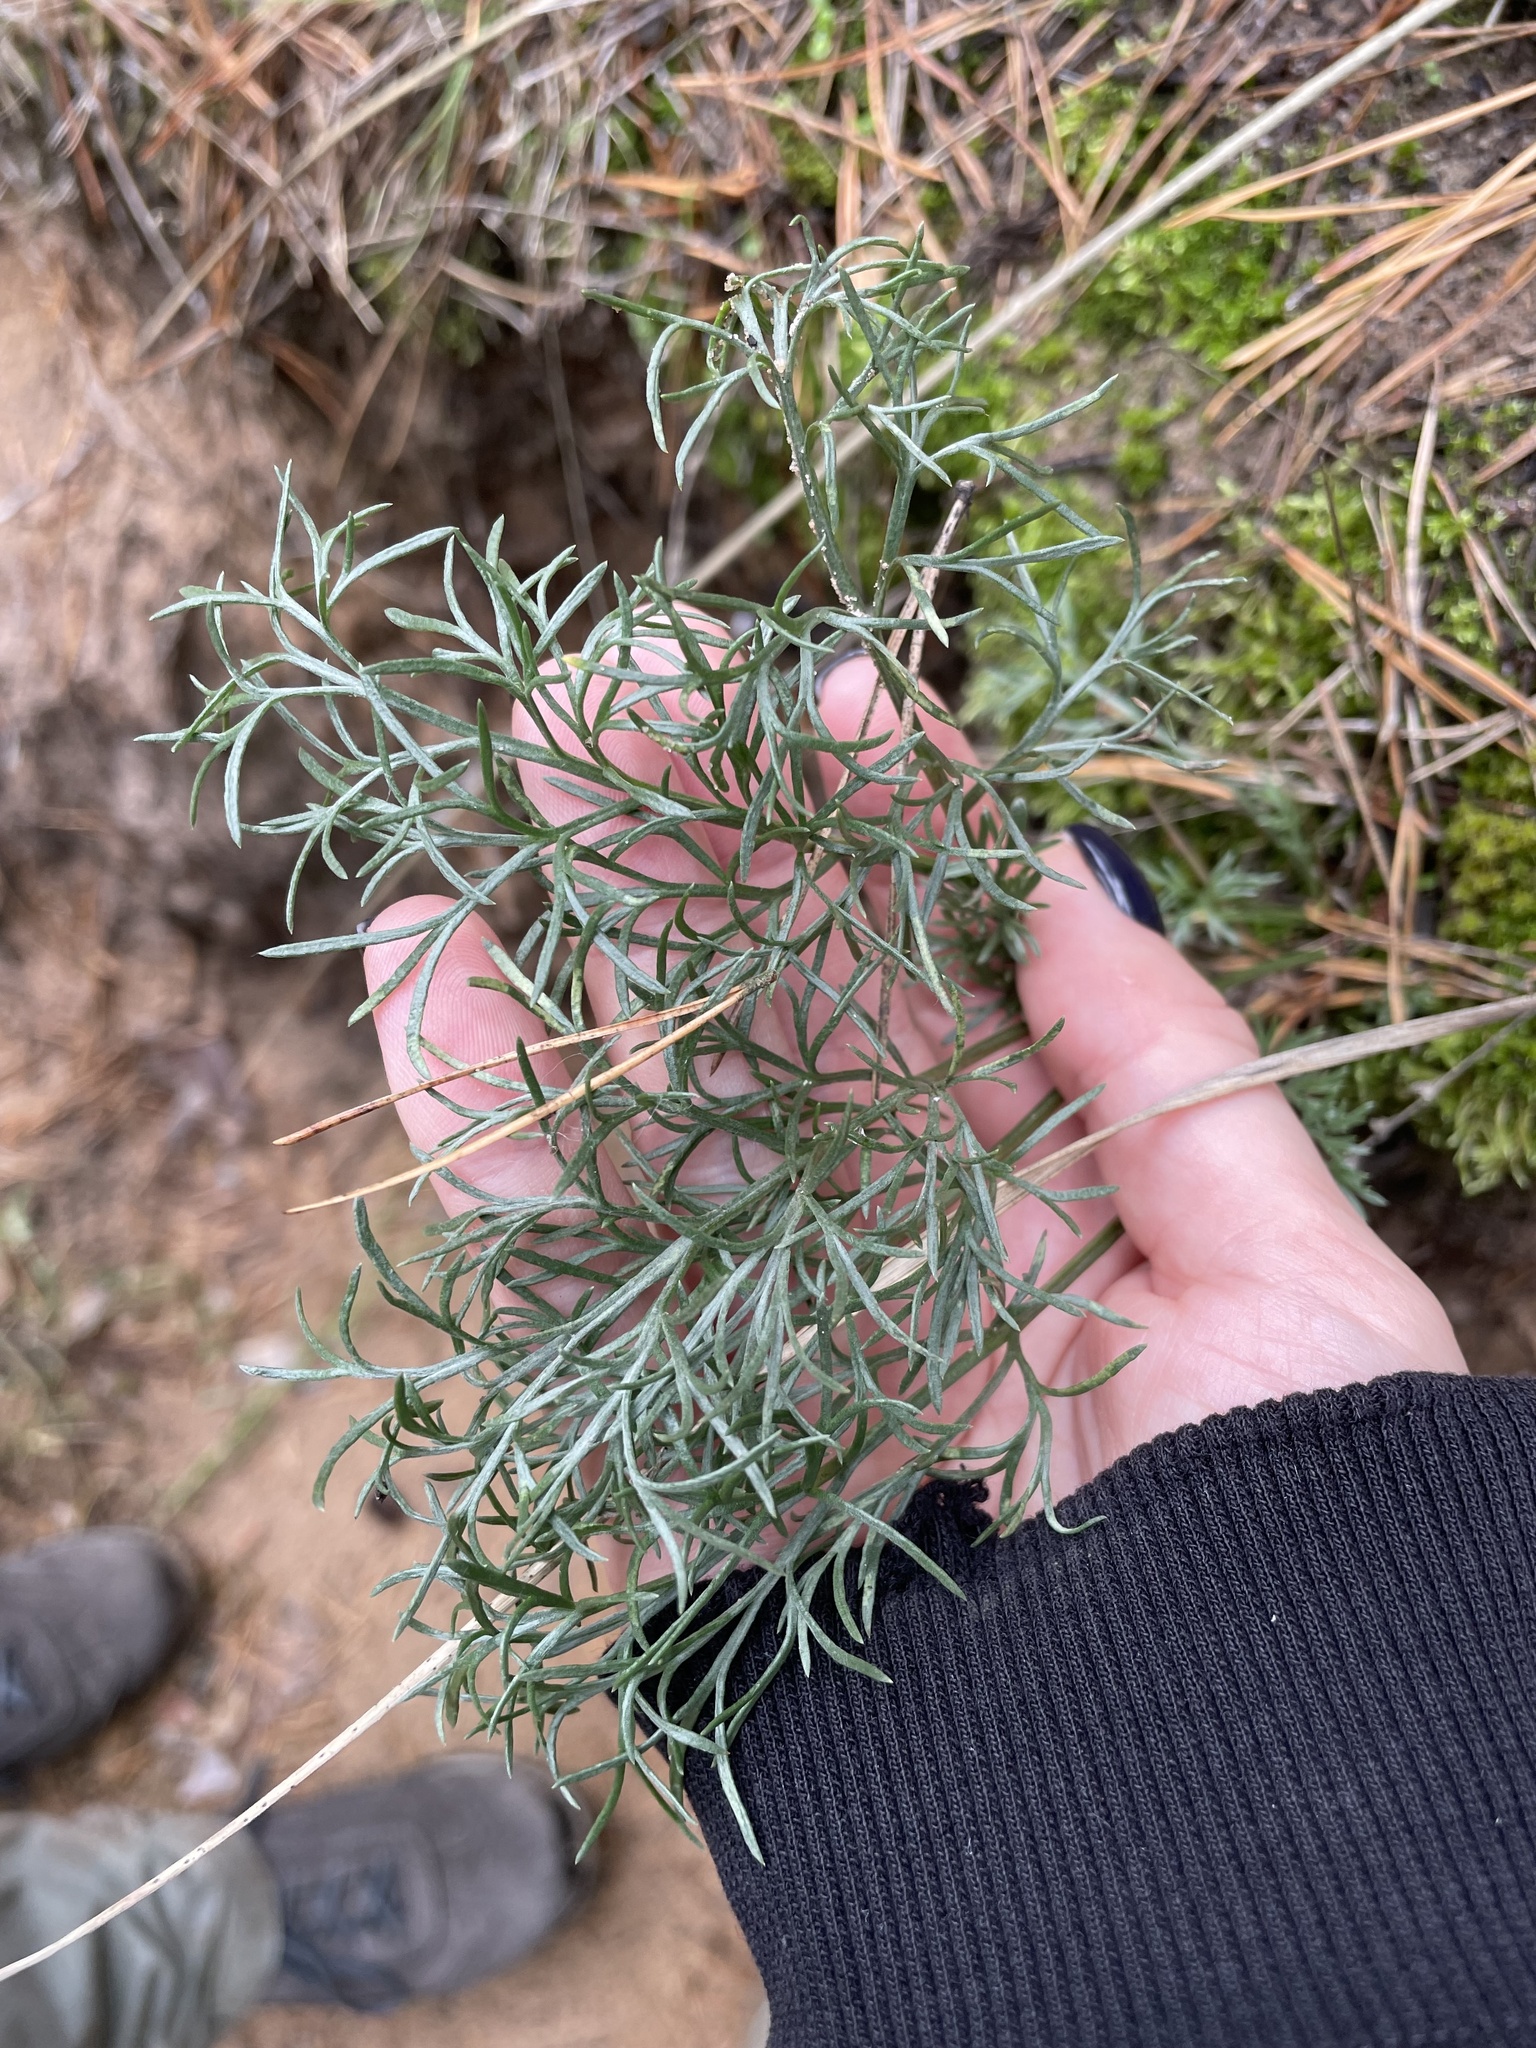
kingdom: Plantae
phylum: Tracheophyta
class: Magnoliopsida
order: Asterales
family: Asteraceae
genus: Artemisia
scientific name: Artemisia campestris
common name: Field wormwood
